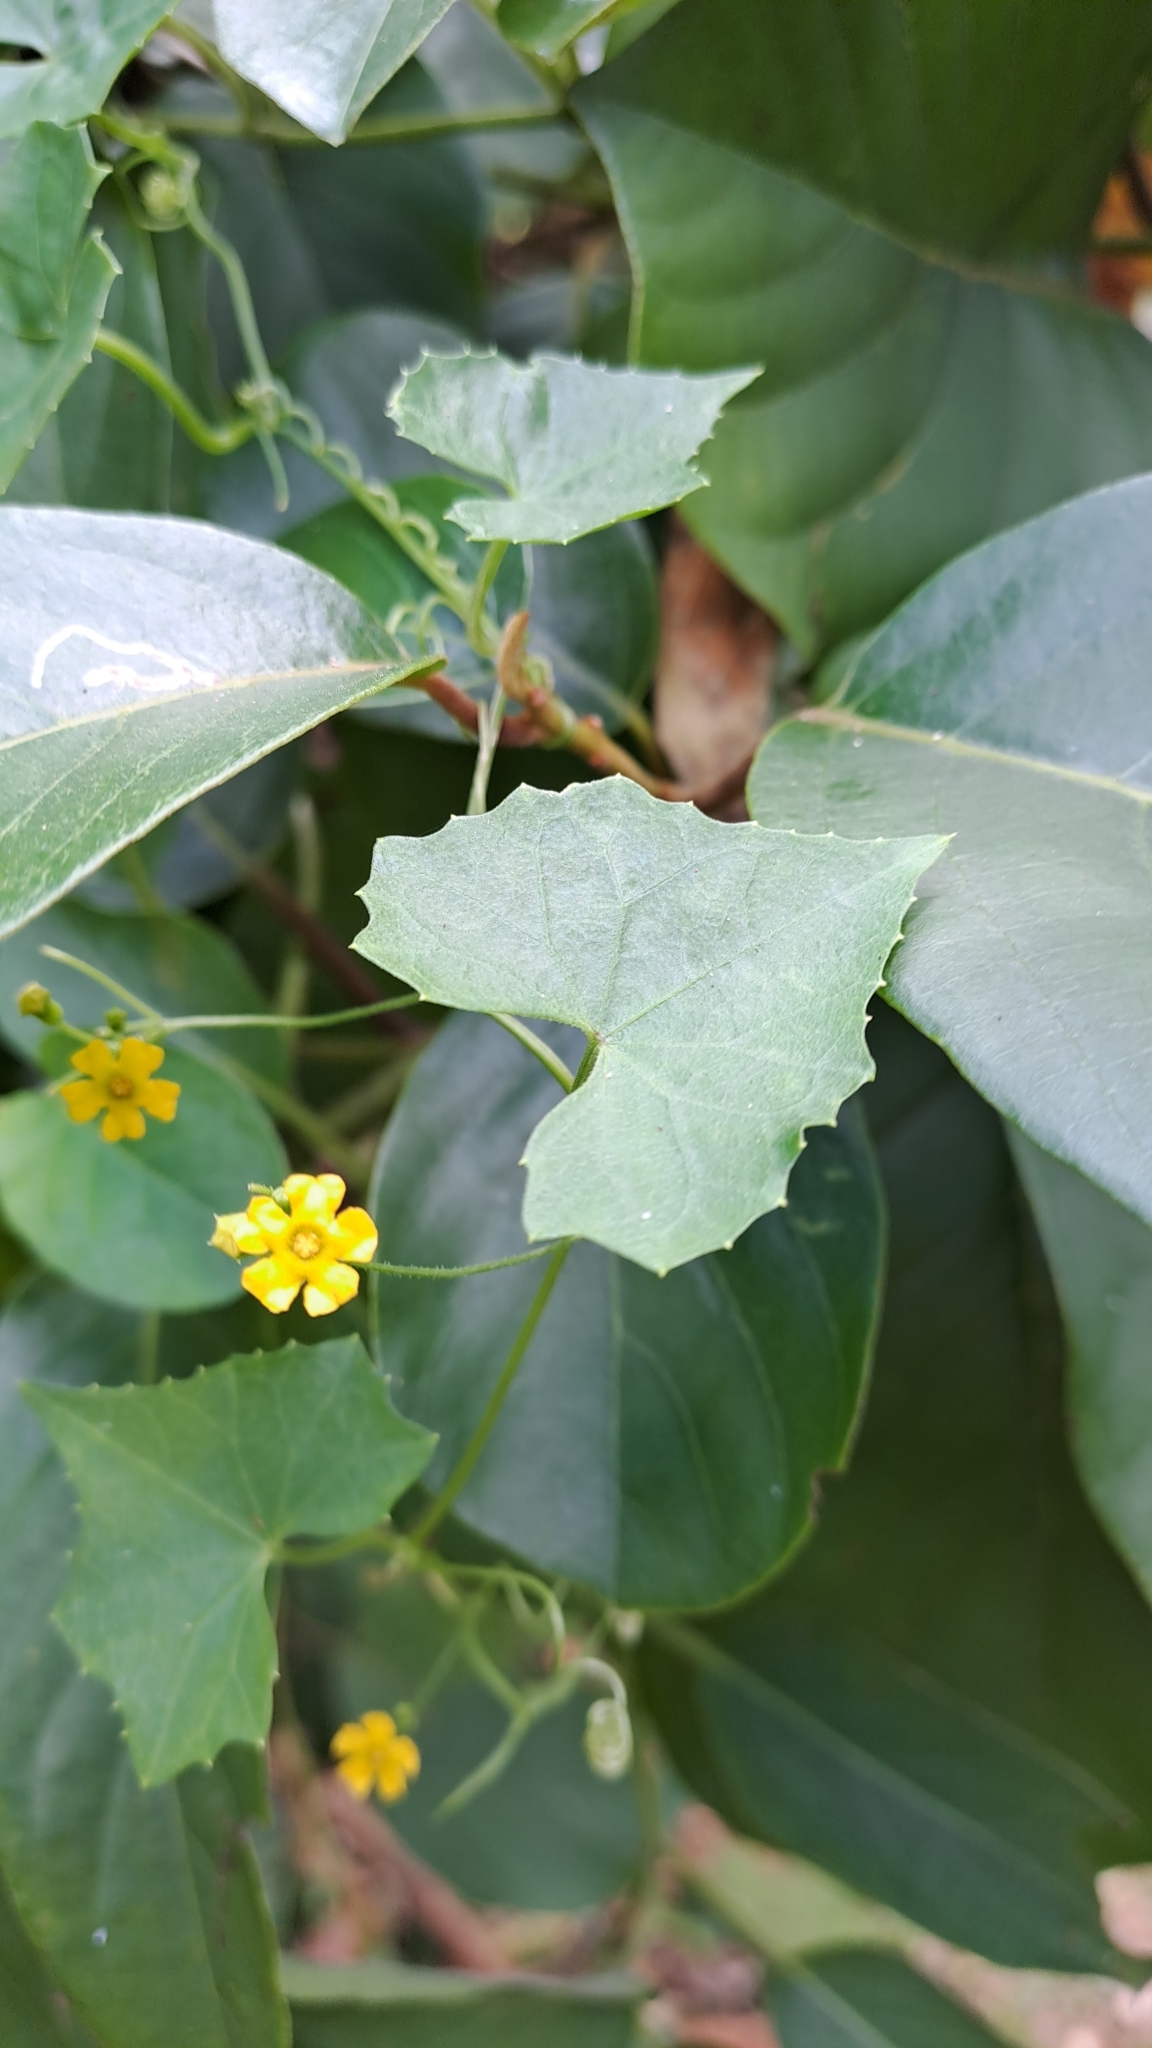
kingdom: Plantae
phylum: Tracheophyta
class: Magnoliopsida
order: Cucurbitales
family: Cucurbitaceae
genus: Melothria
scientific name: Melothria pendula
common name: Creeping-cucumber
